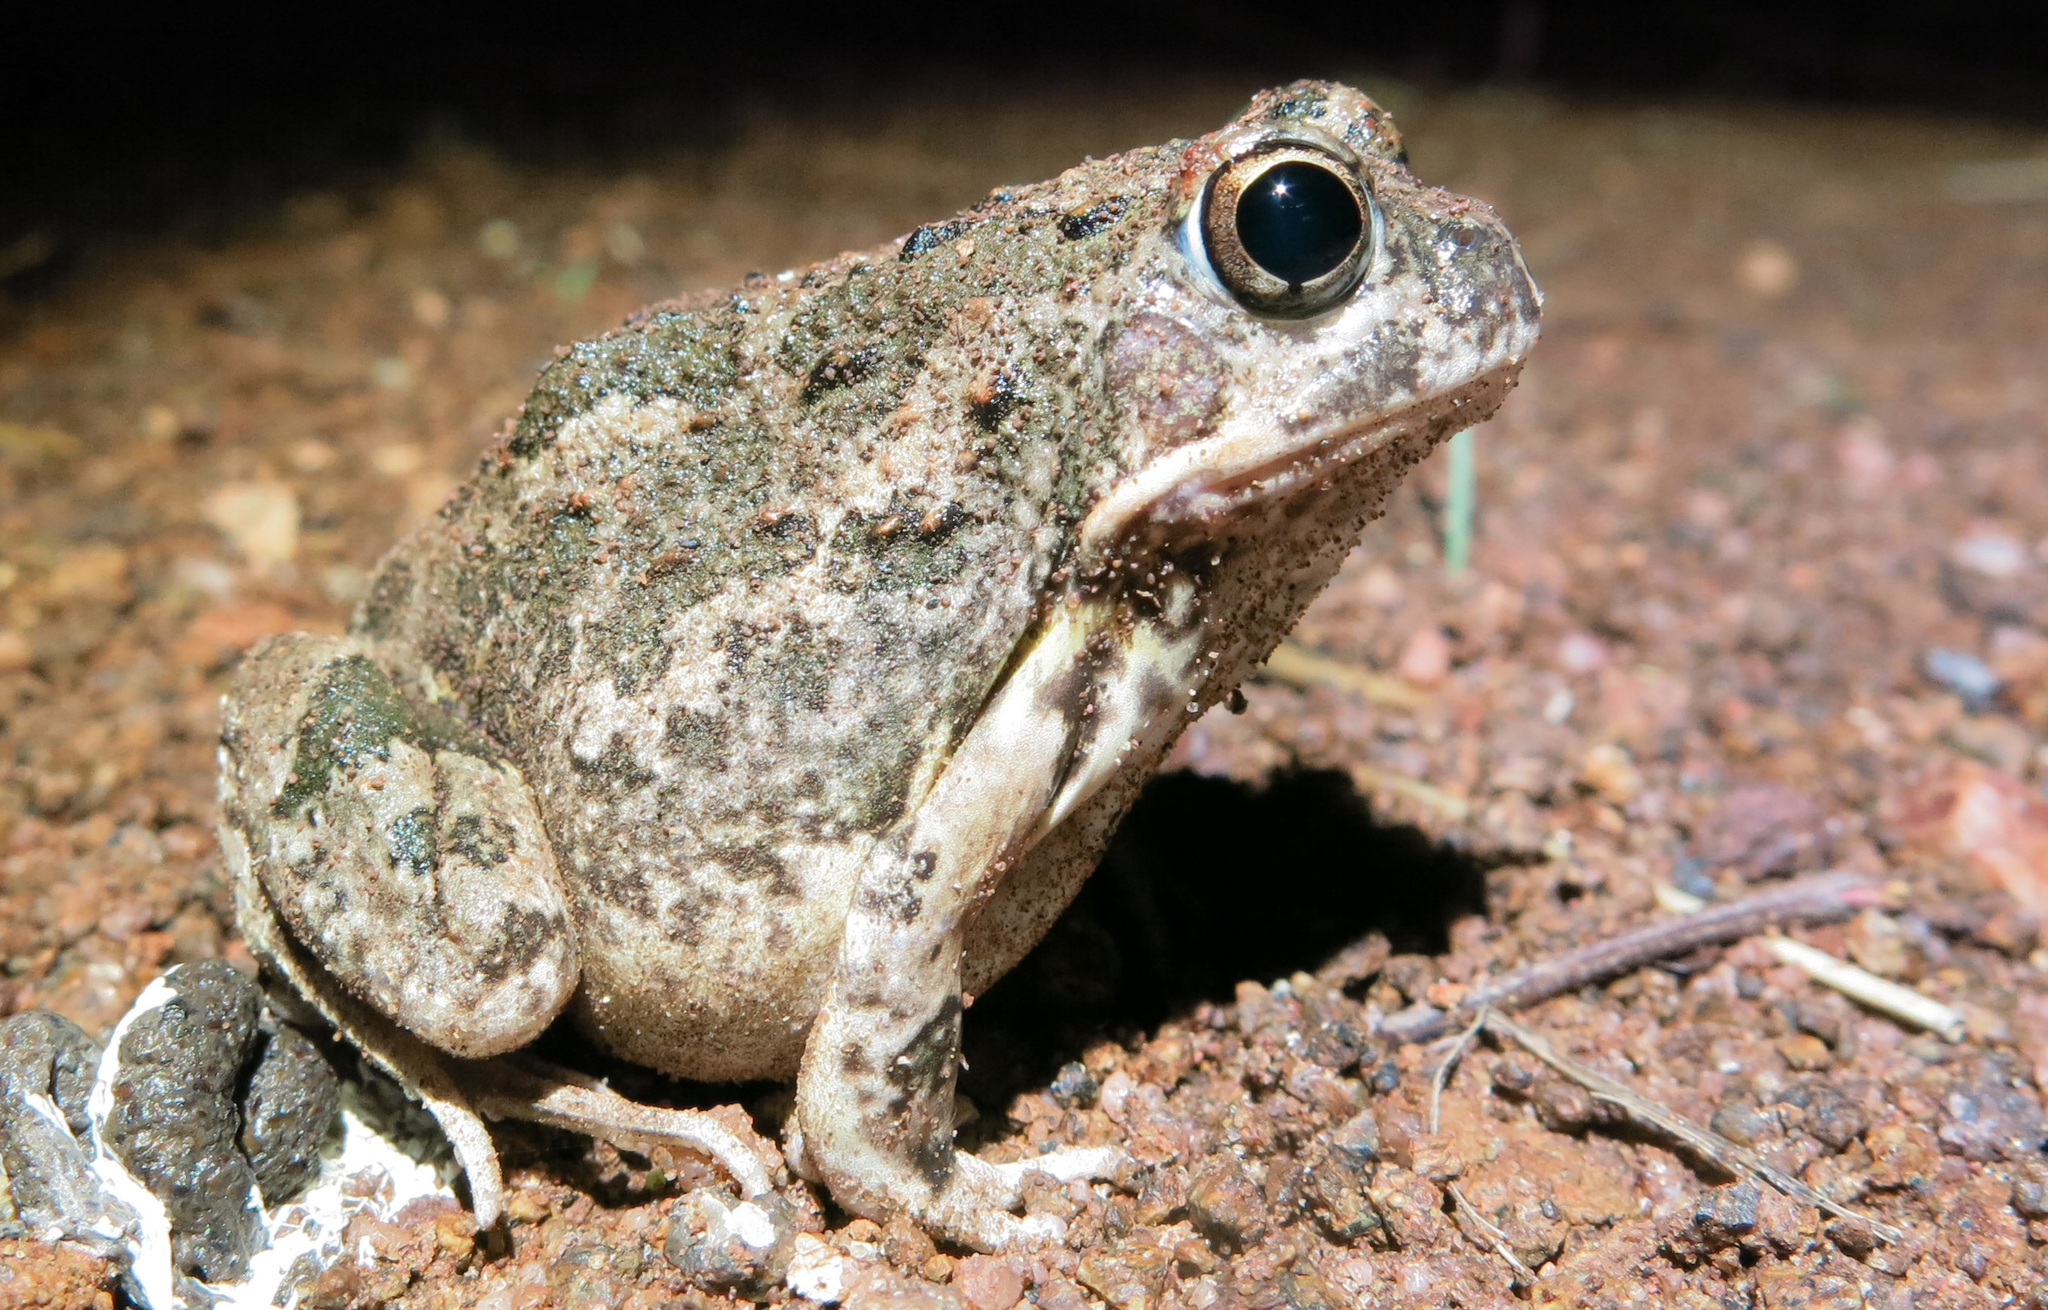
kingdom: Animalia
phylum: Chordata
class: Amphibia
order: Anura
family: Pyxicephalidae
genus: Tomopterna
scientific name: Tomopterna
